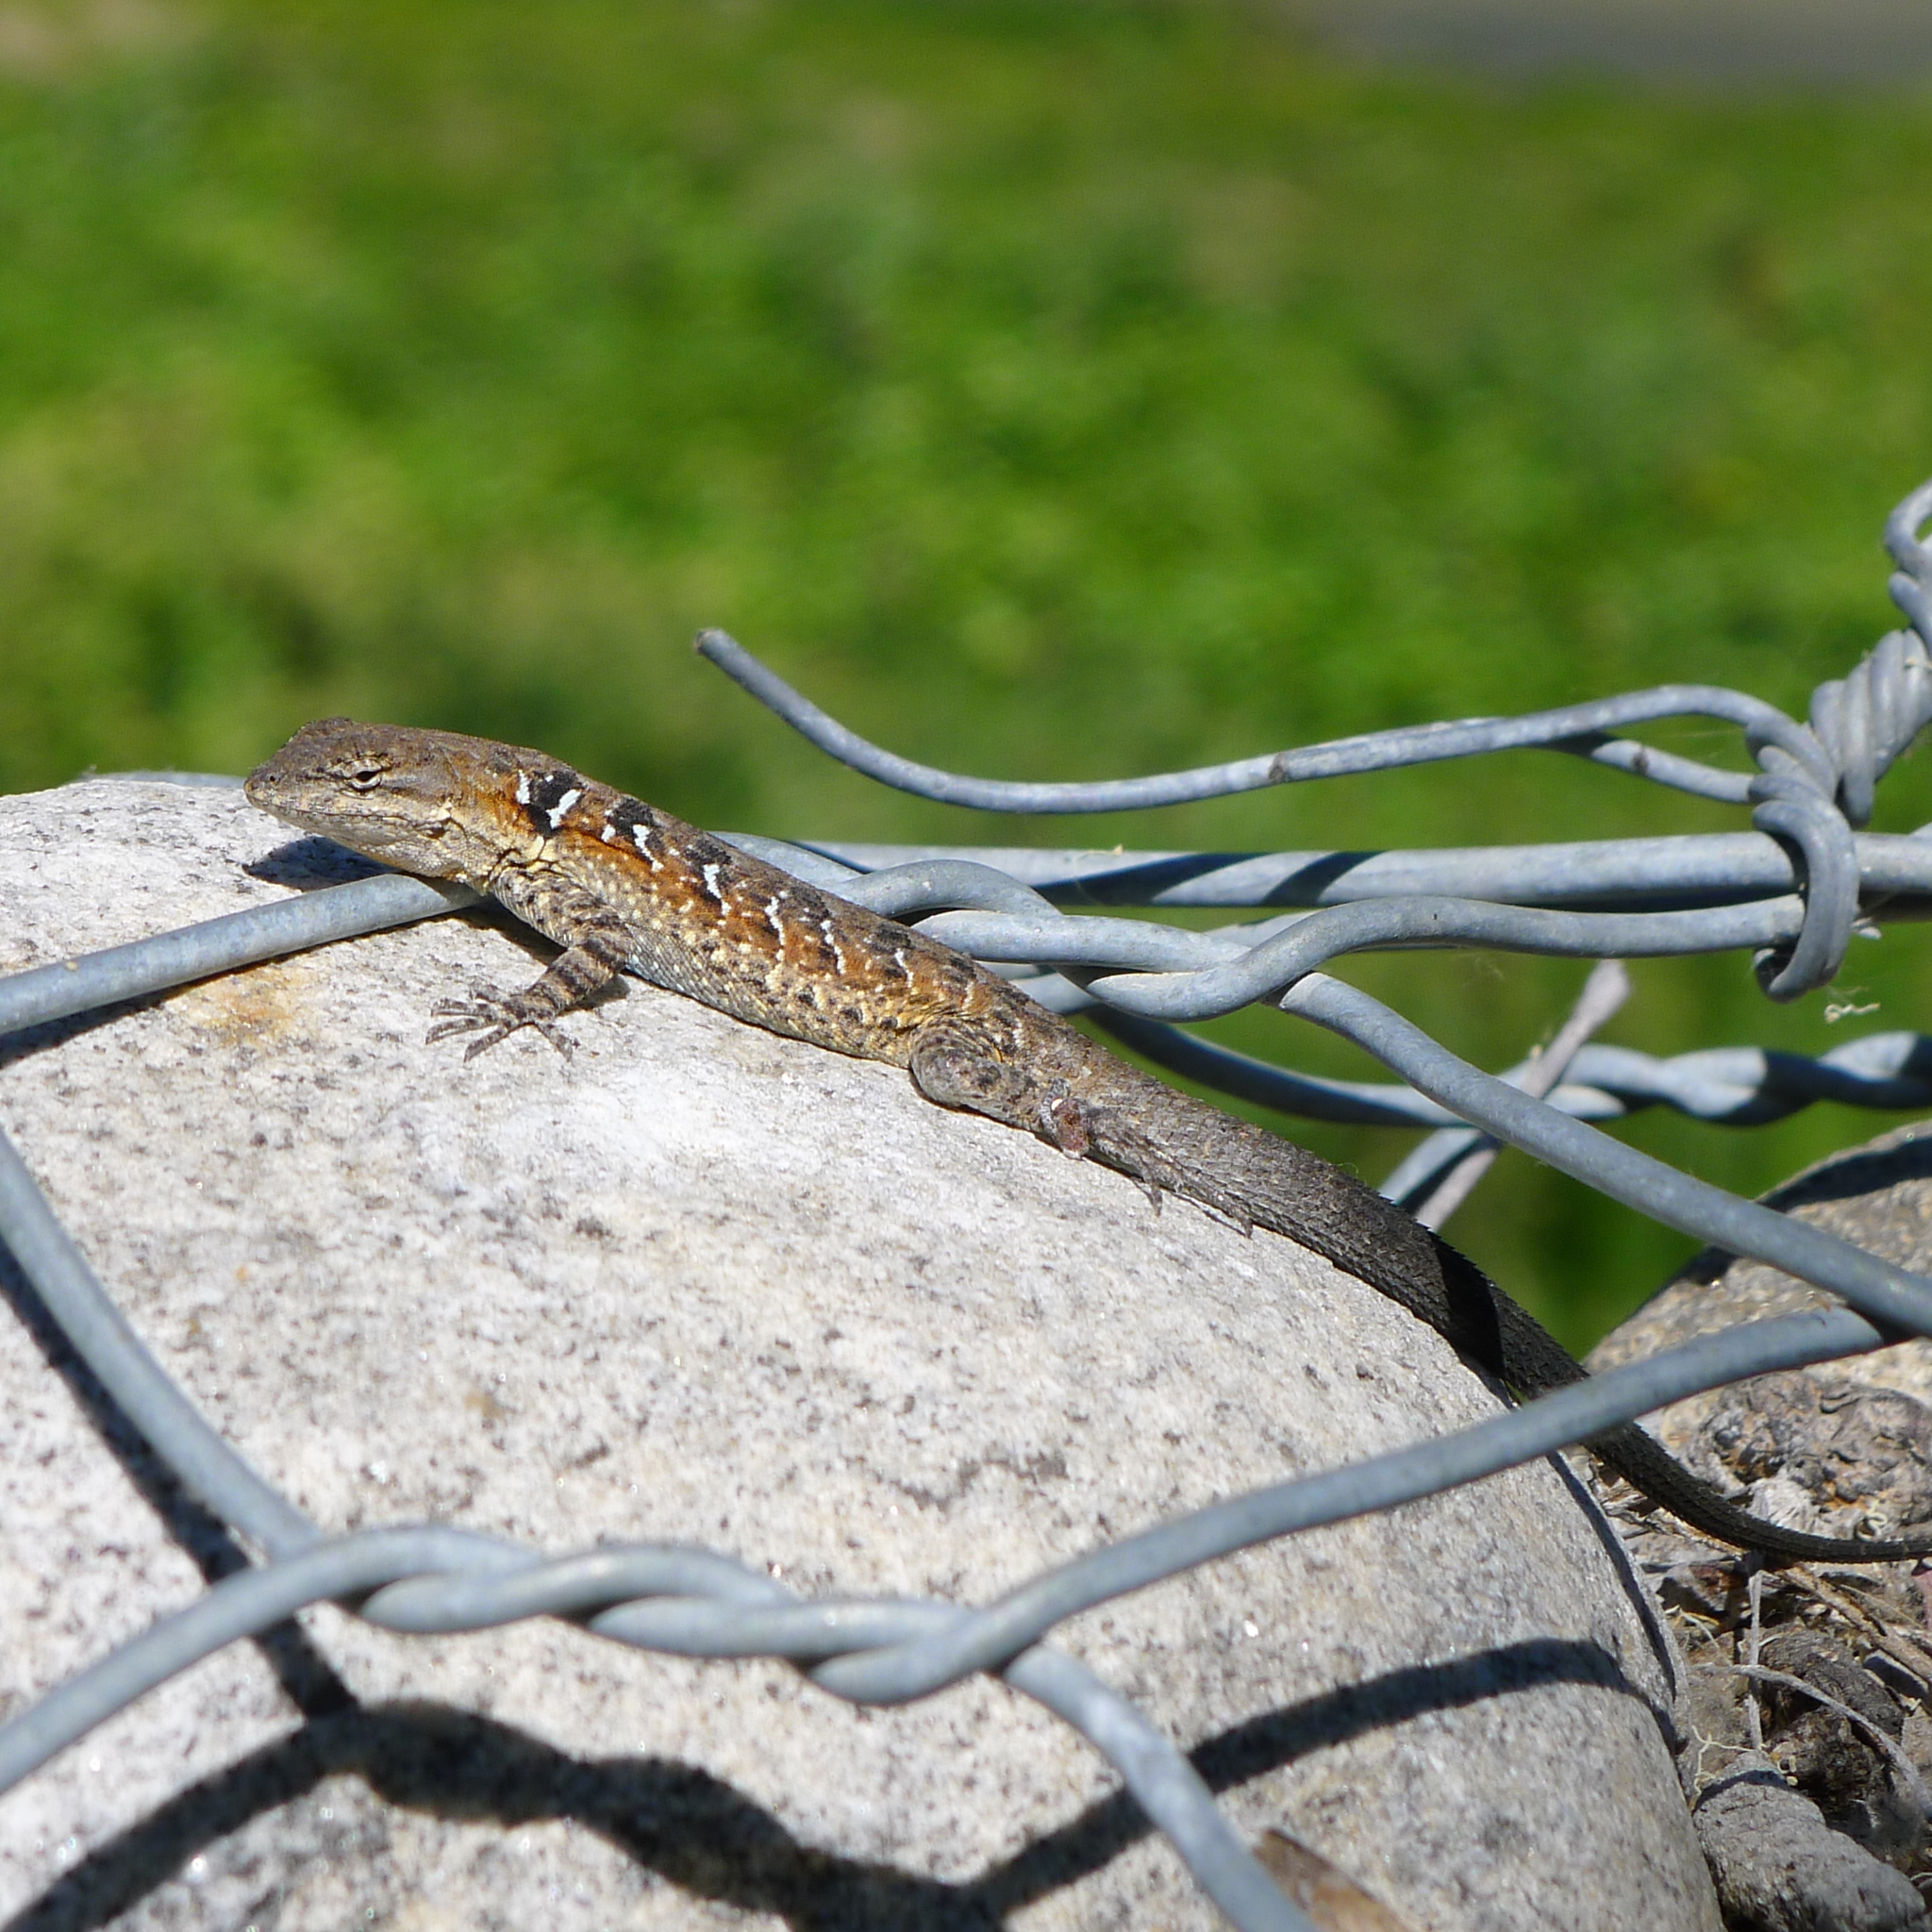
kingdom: Animalia
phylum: Chordata
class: Squamata
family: Phrynosomatidae
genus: Urosaurus
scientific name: Urosaurus nigricauda
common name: Baja california brush lizard
